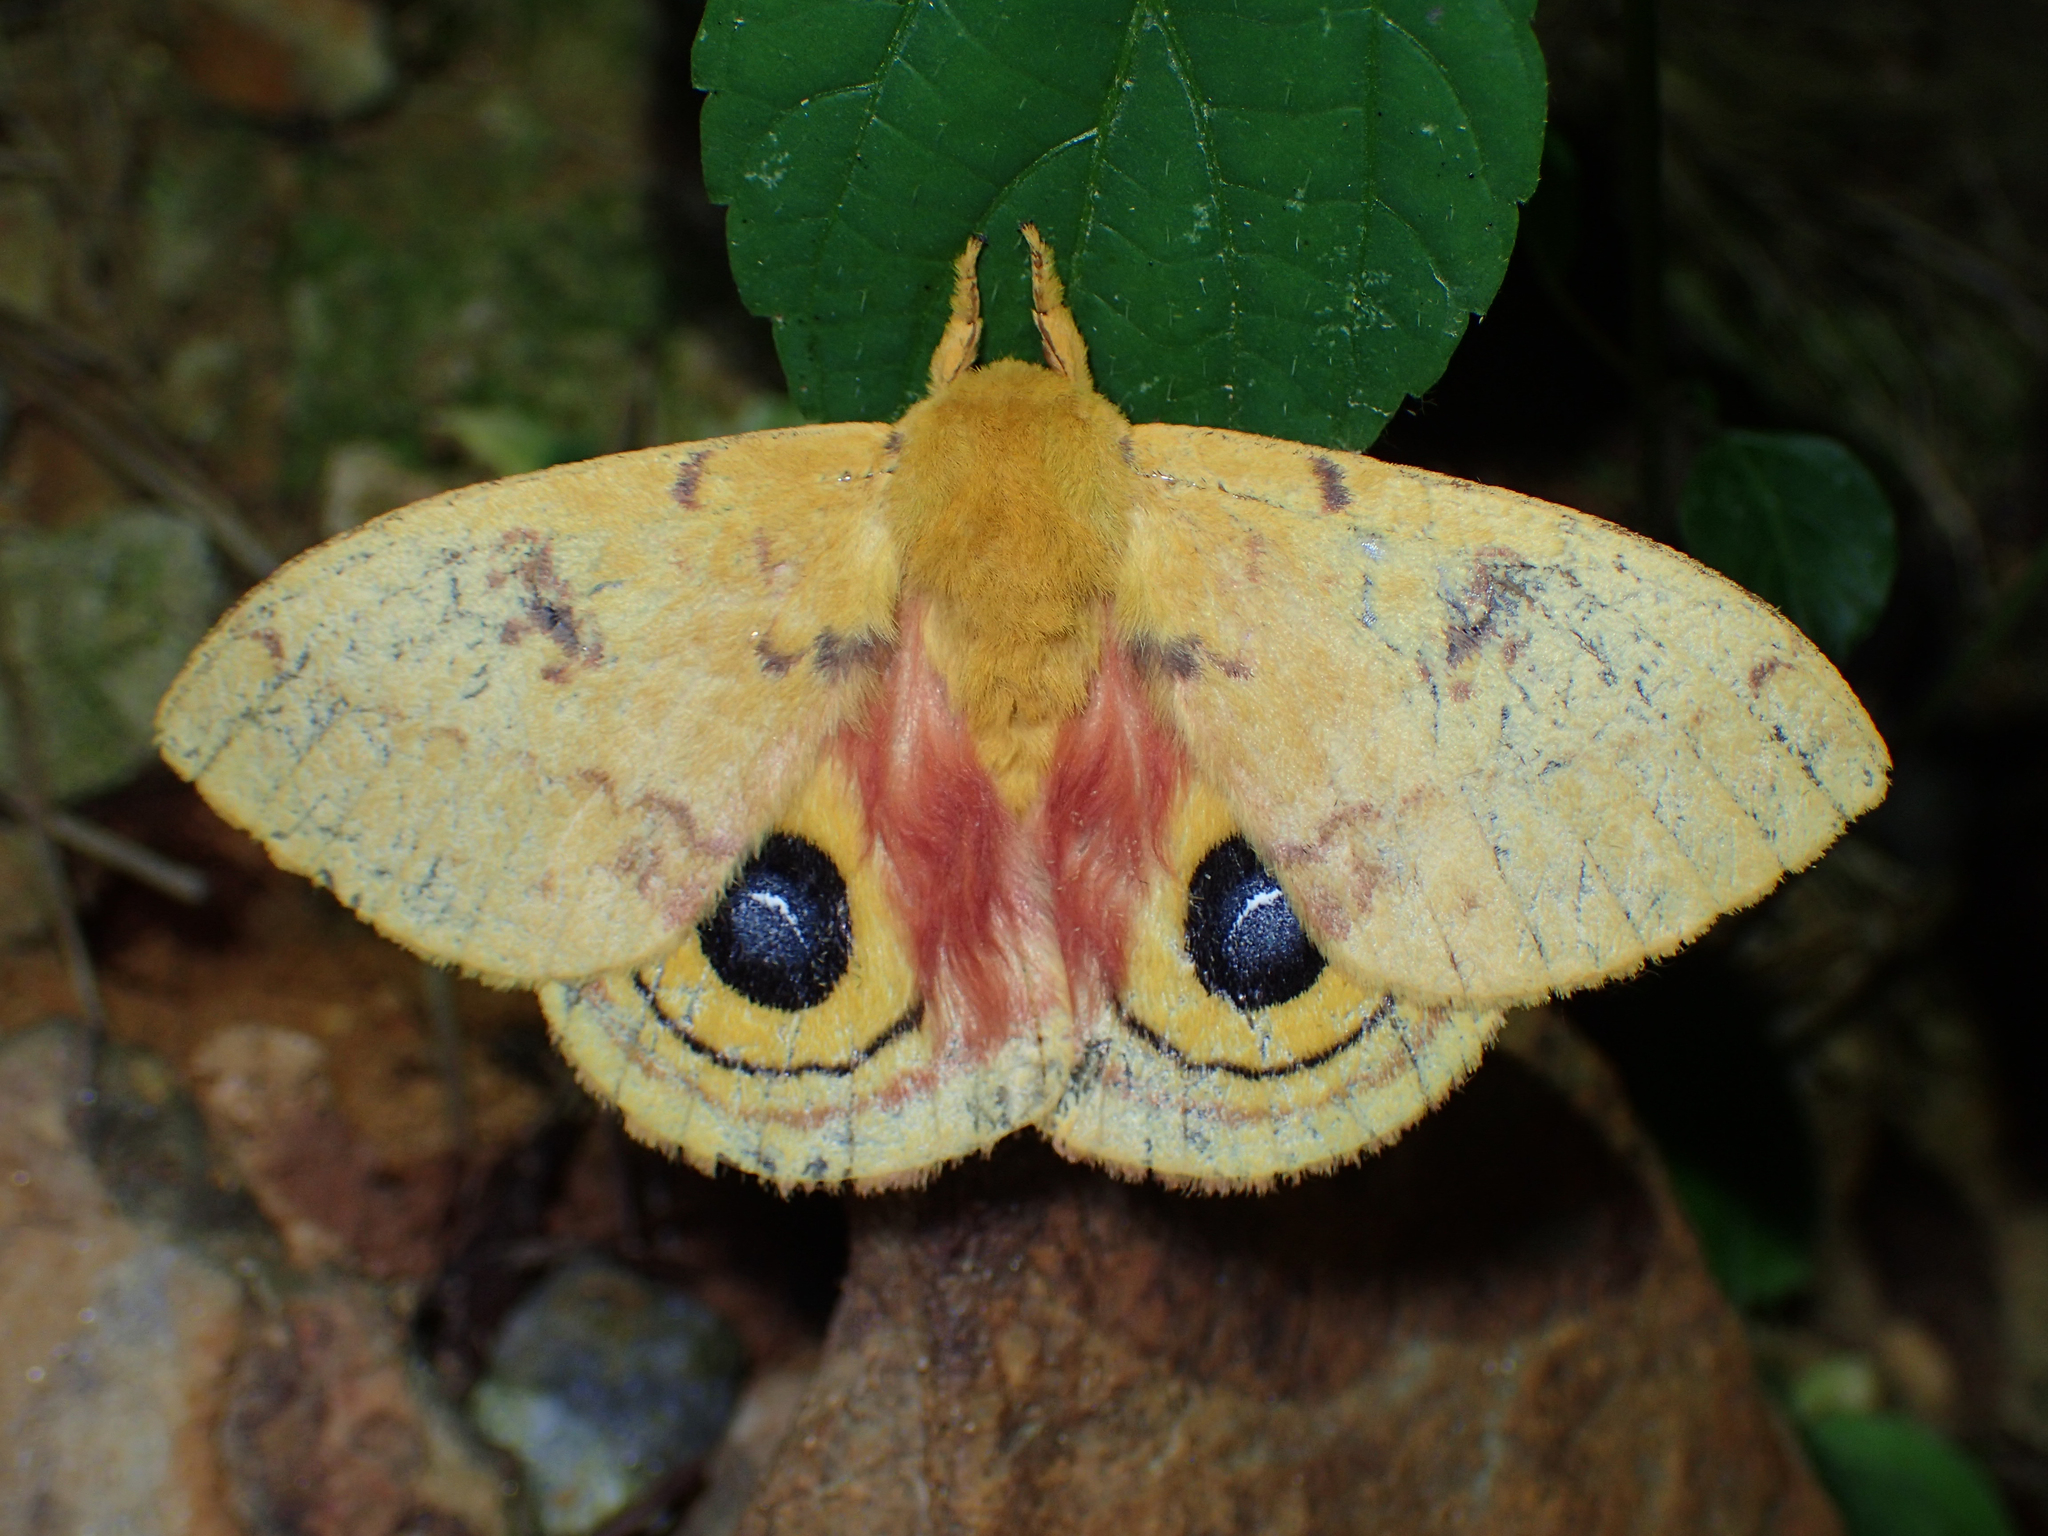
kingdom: Animalia
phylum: Arthropoda
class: Insecta
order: Lepidoptera
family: Saturniidae
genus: Automeris
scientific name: Automeris io
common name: Io moth
